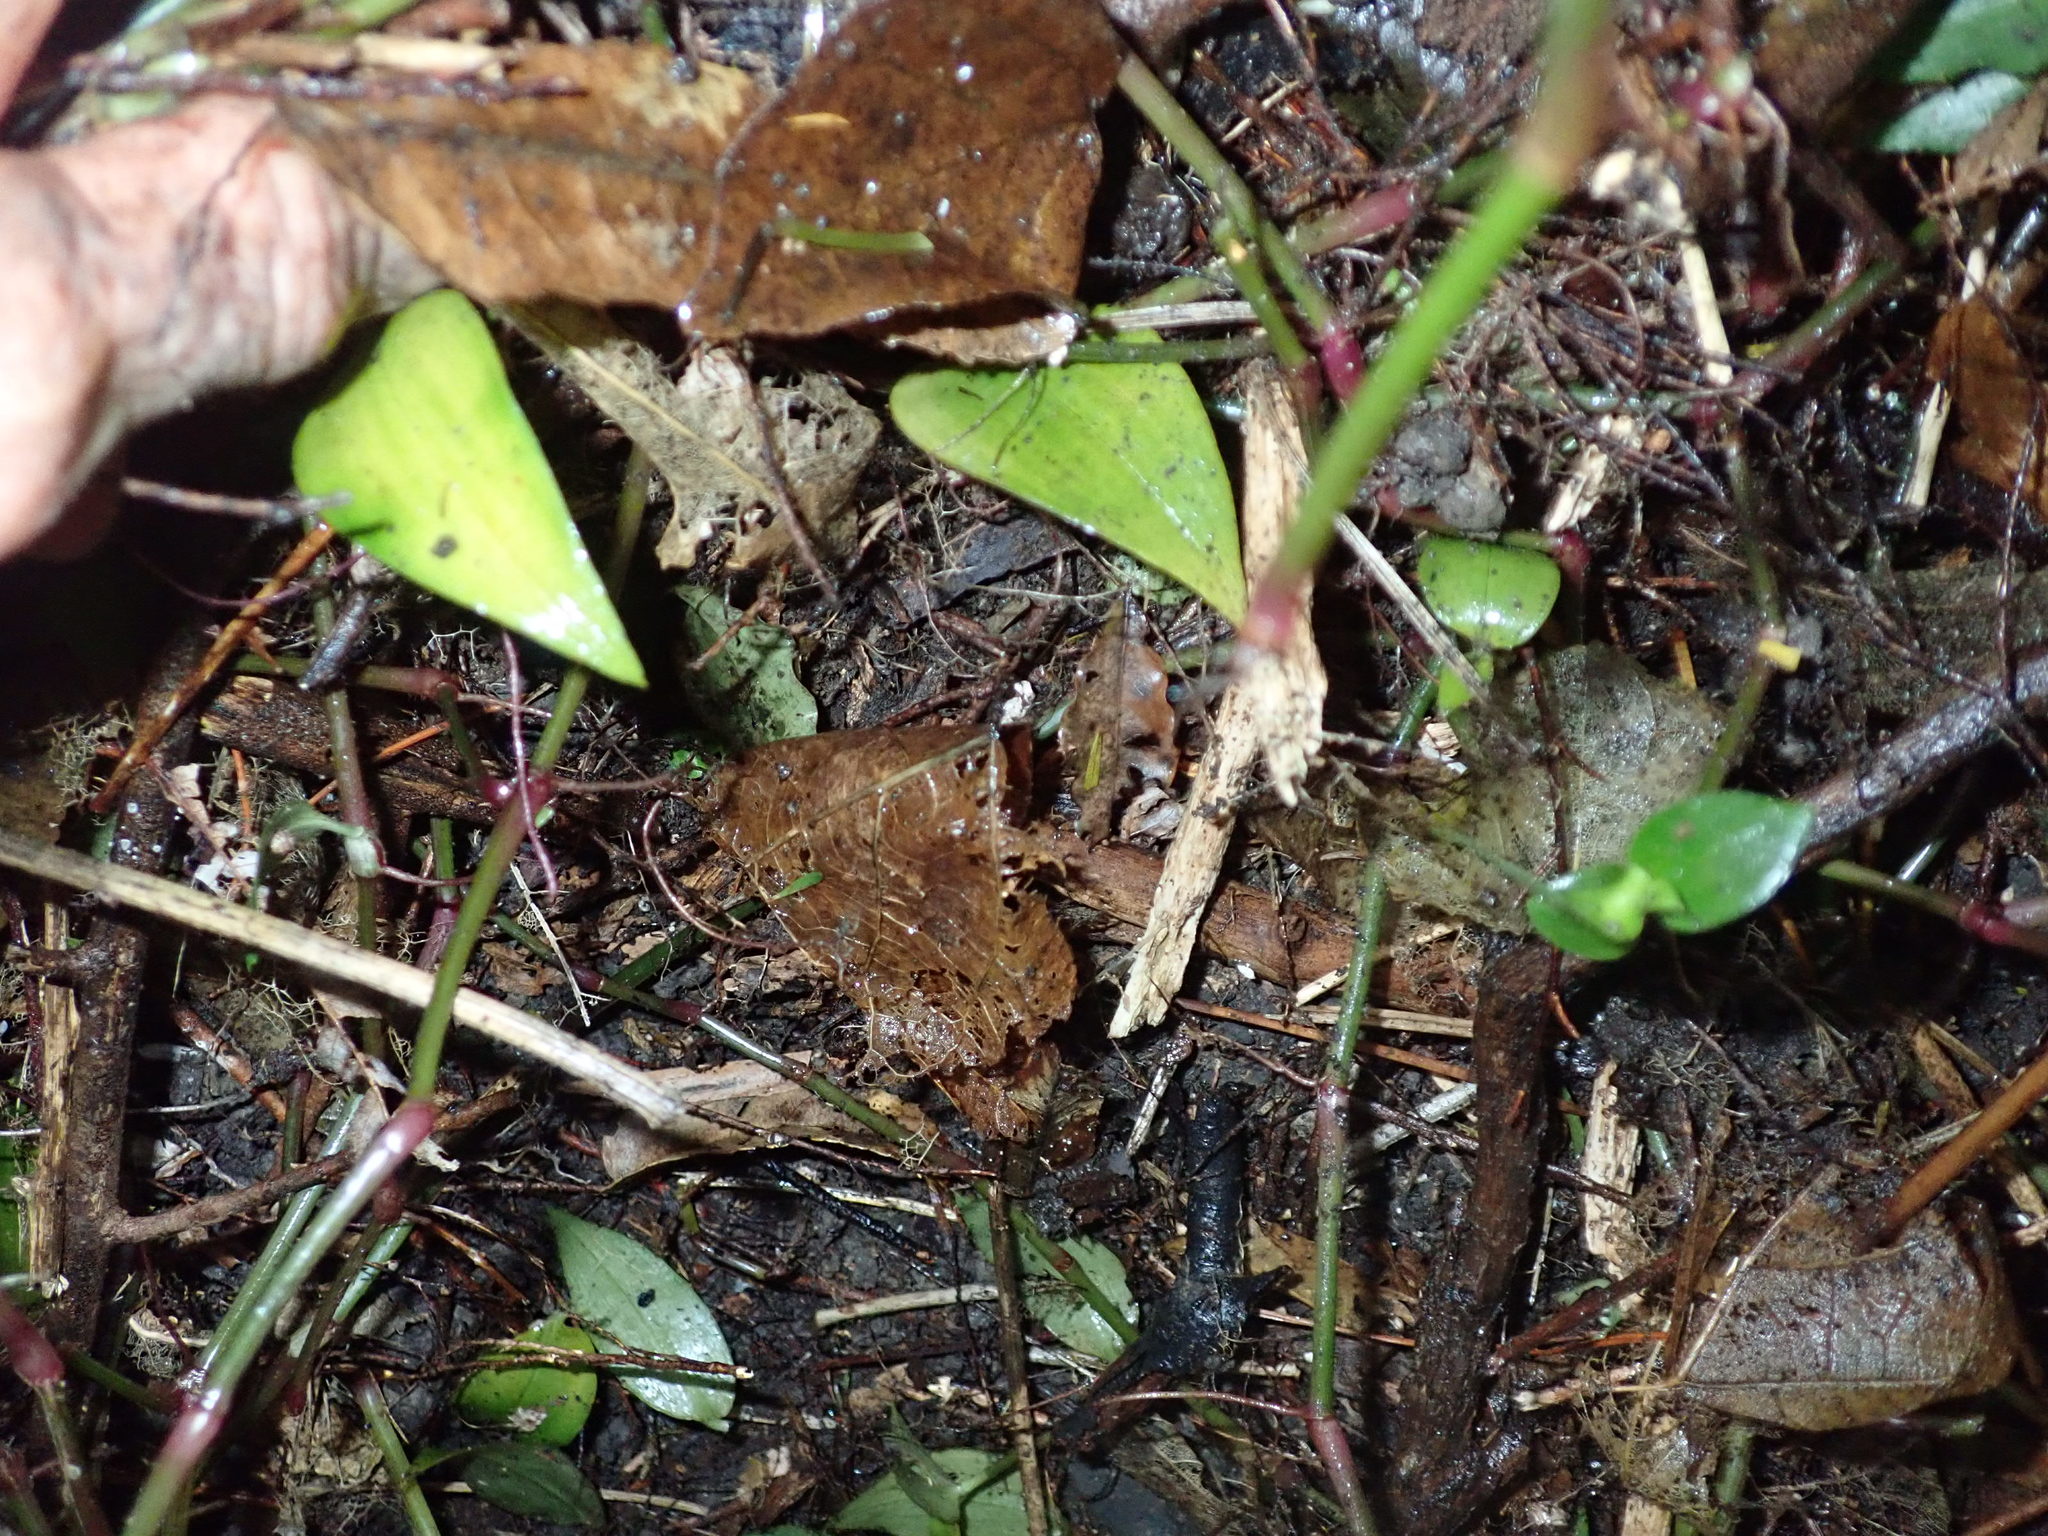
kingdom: Plantae
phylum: Tracheophyta
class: Magnoliopsida
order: Piperales
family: Piperaceae
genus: Macropiper
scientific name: Macropiper excelsum
